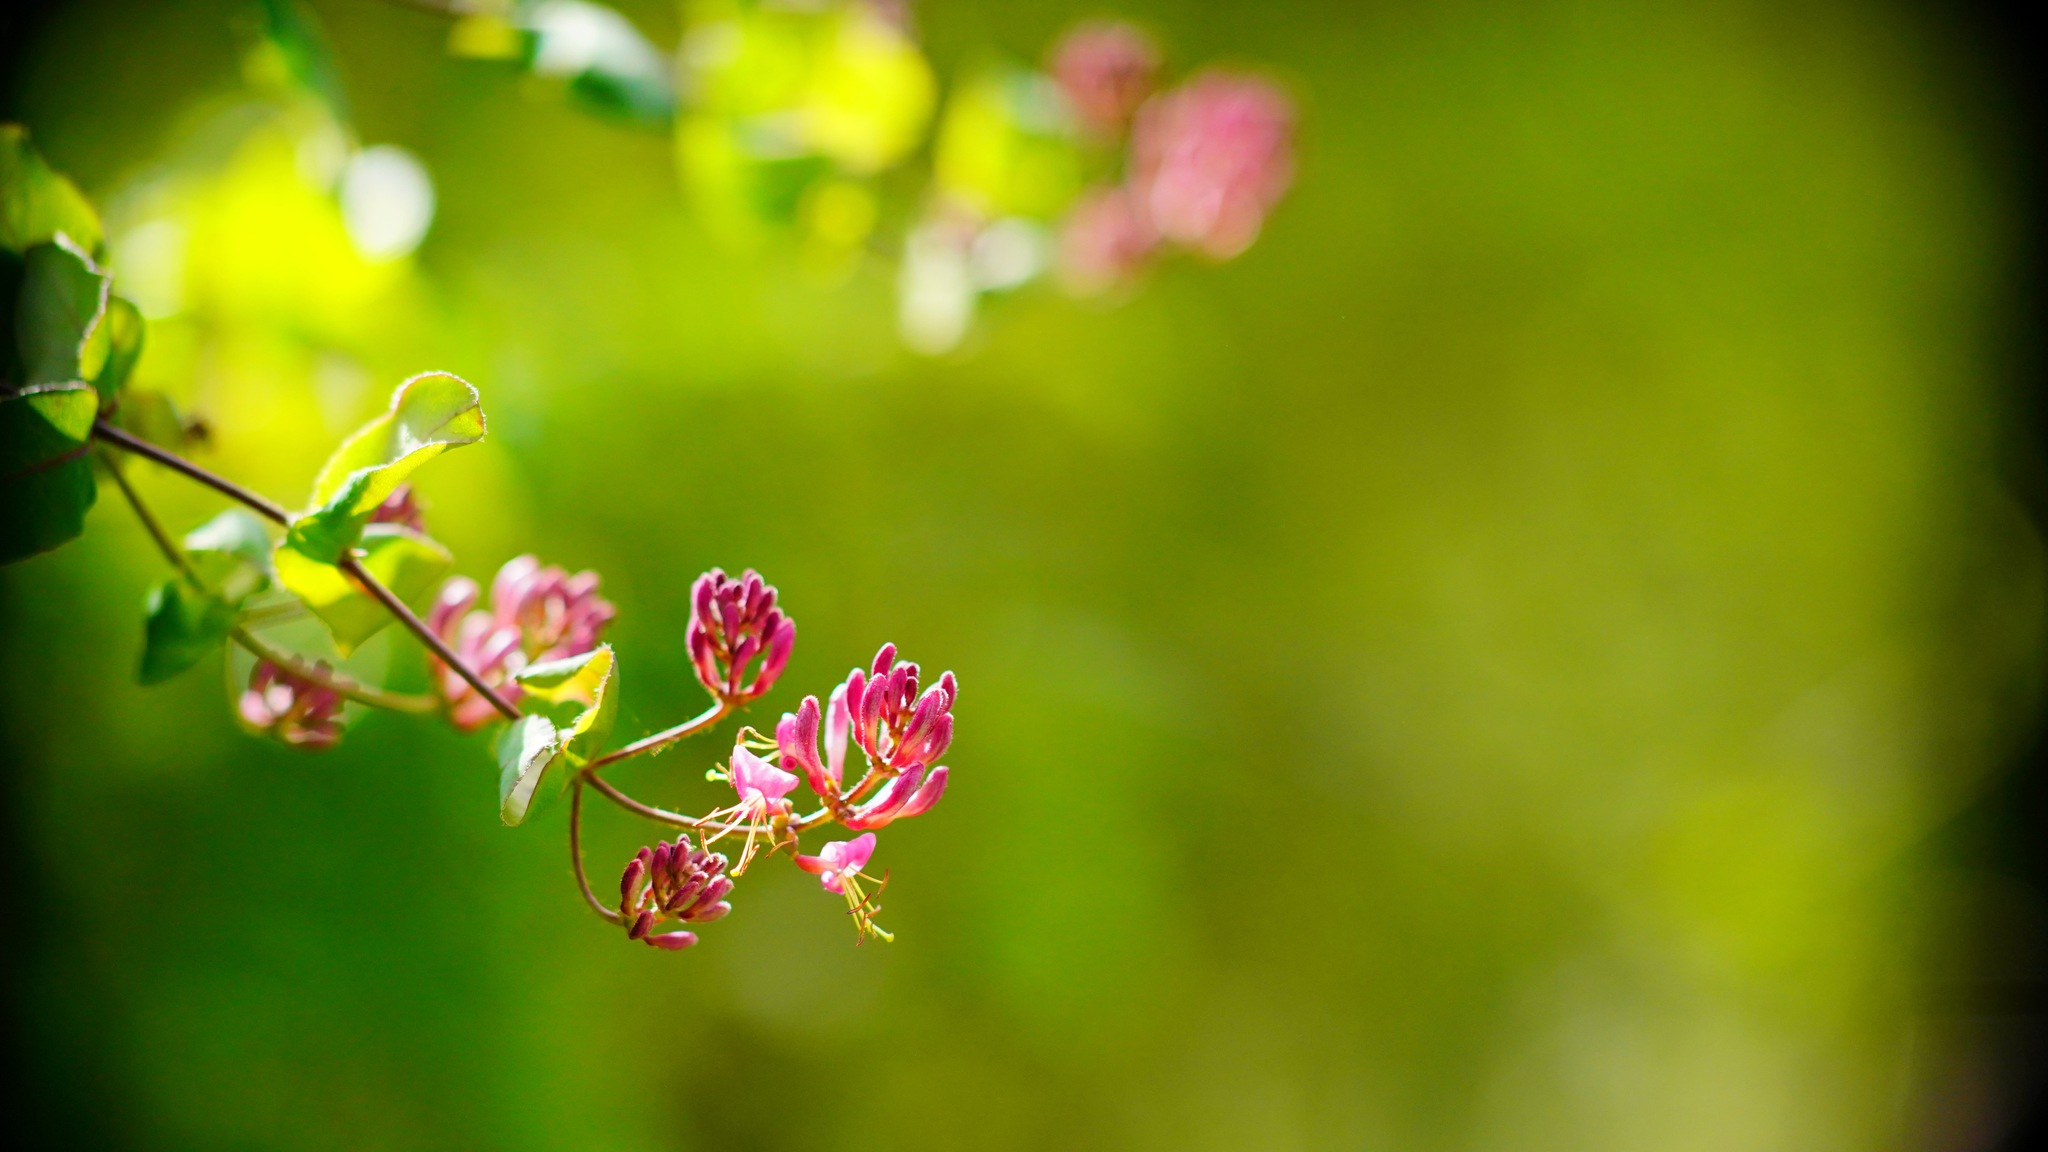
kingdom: Plantae
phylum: Tracheophyta
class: Magnoliopsida
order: Dipsacales
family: Caprifoliaceae
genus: Lonicera
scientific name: Lonicera hispidula
